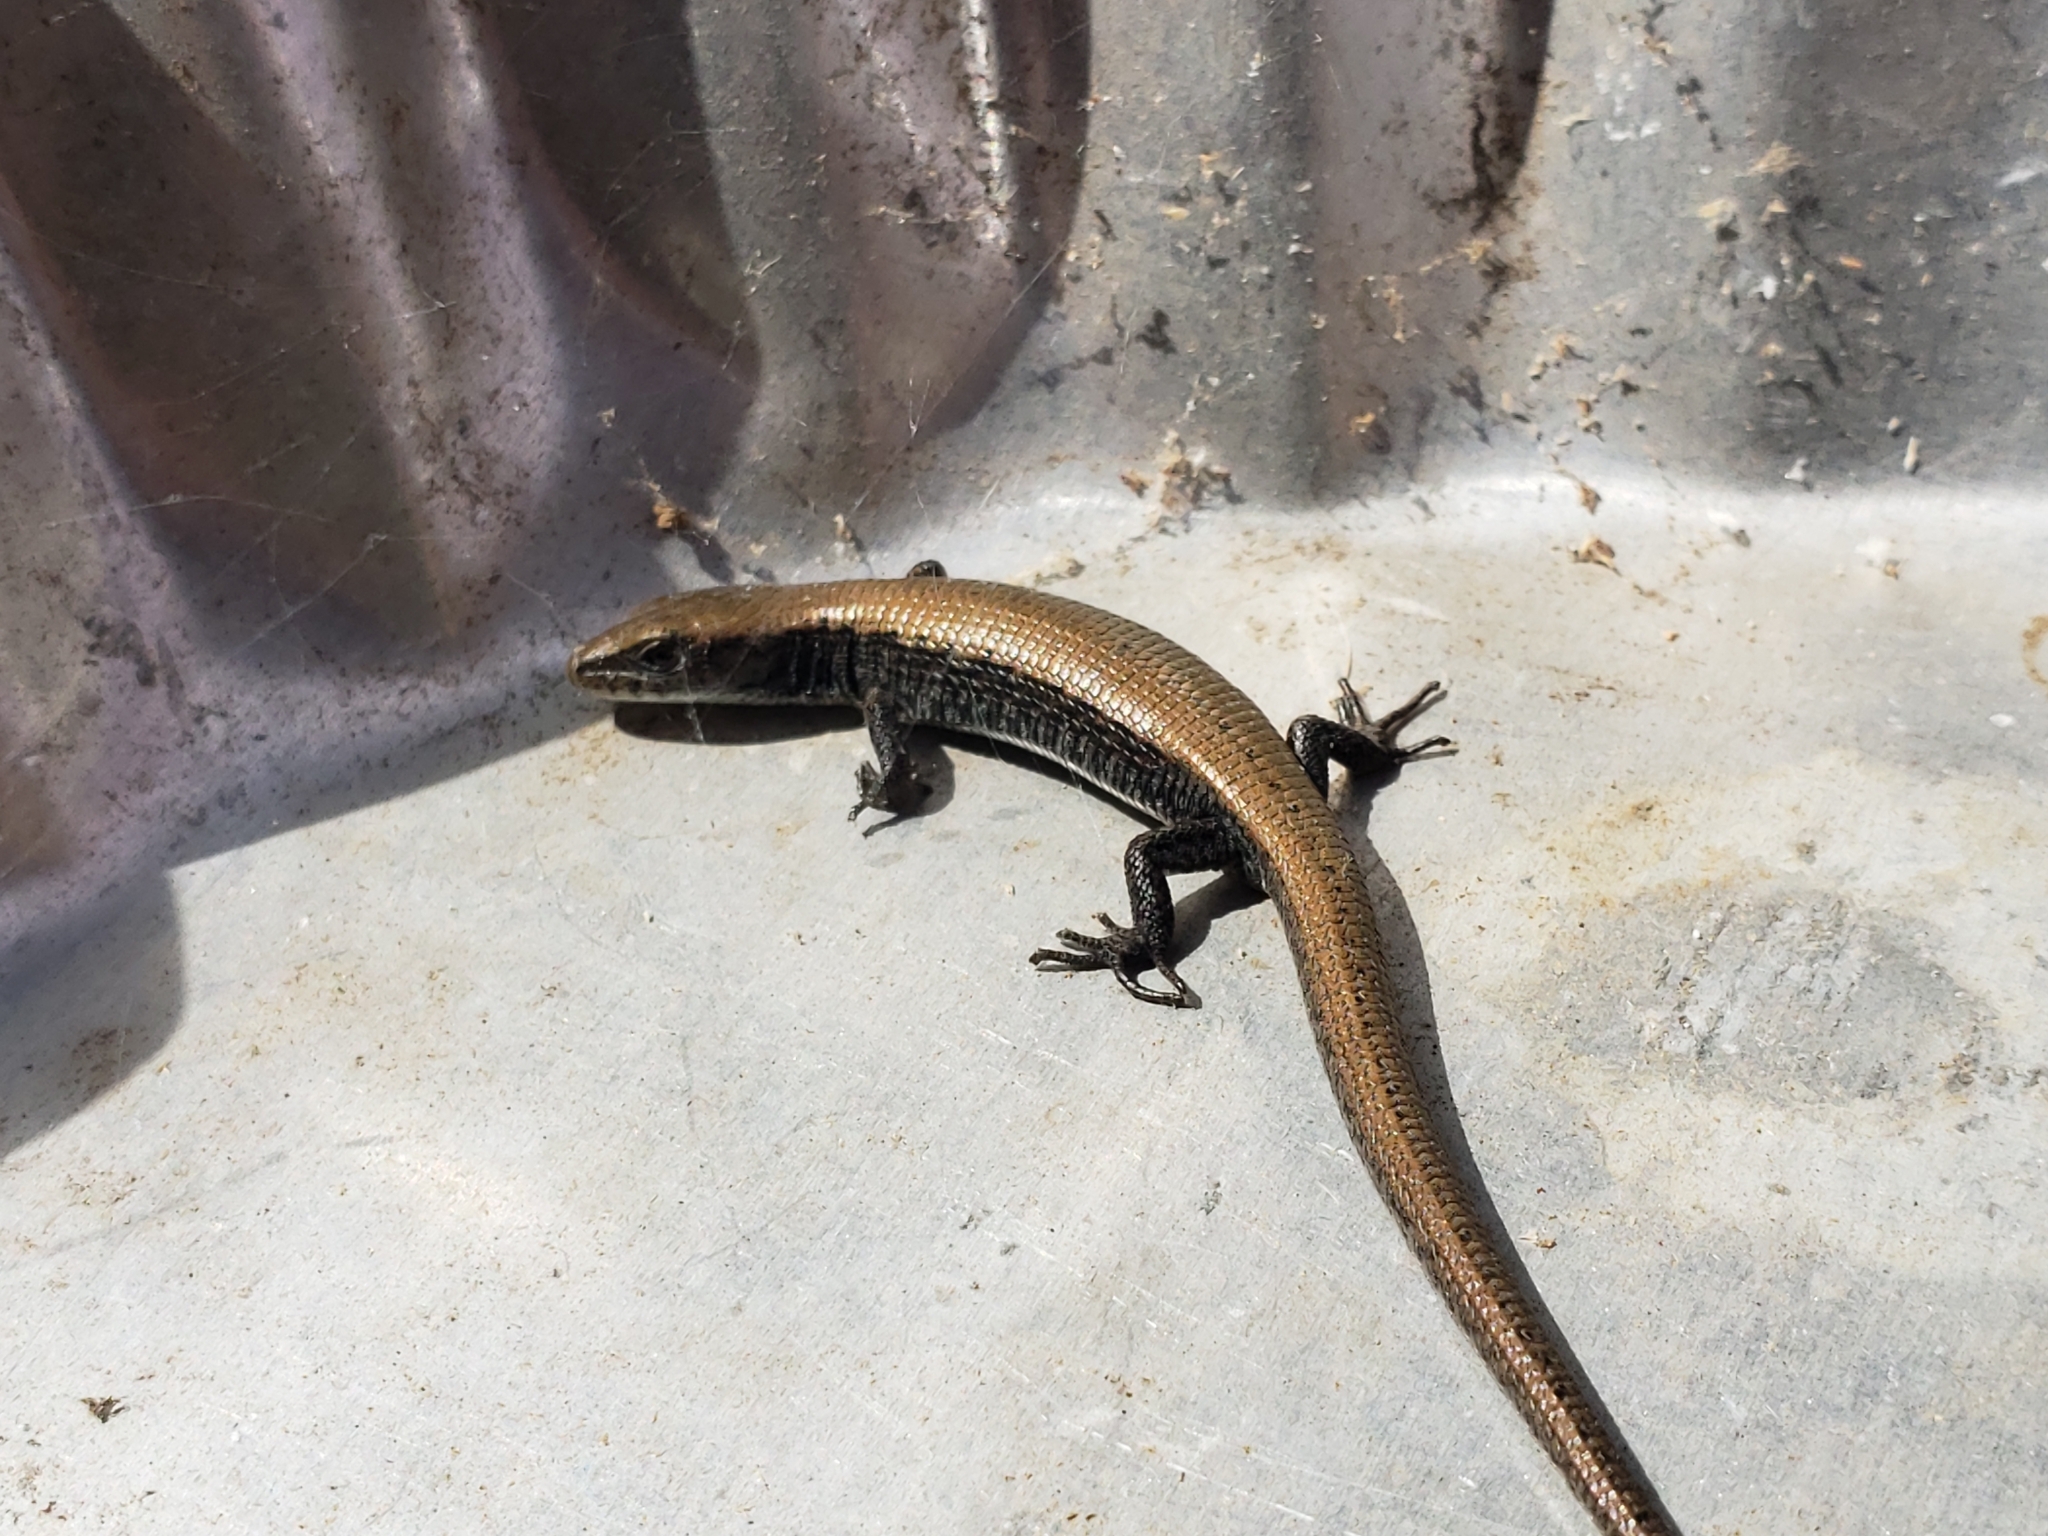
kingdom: Animalia
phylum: Chordata
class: Squamata
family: Anguidae
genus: Elgaria
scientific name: Elgaria coerulea
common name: Northern alligator lizard
